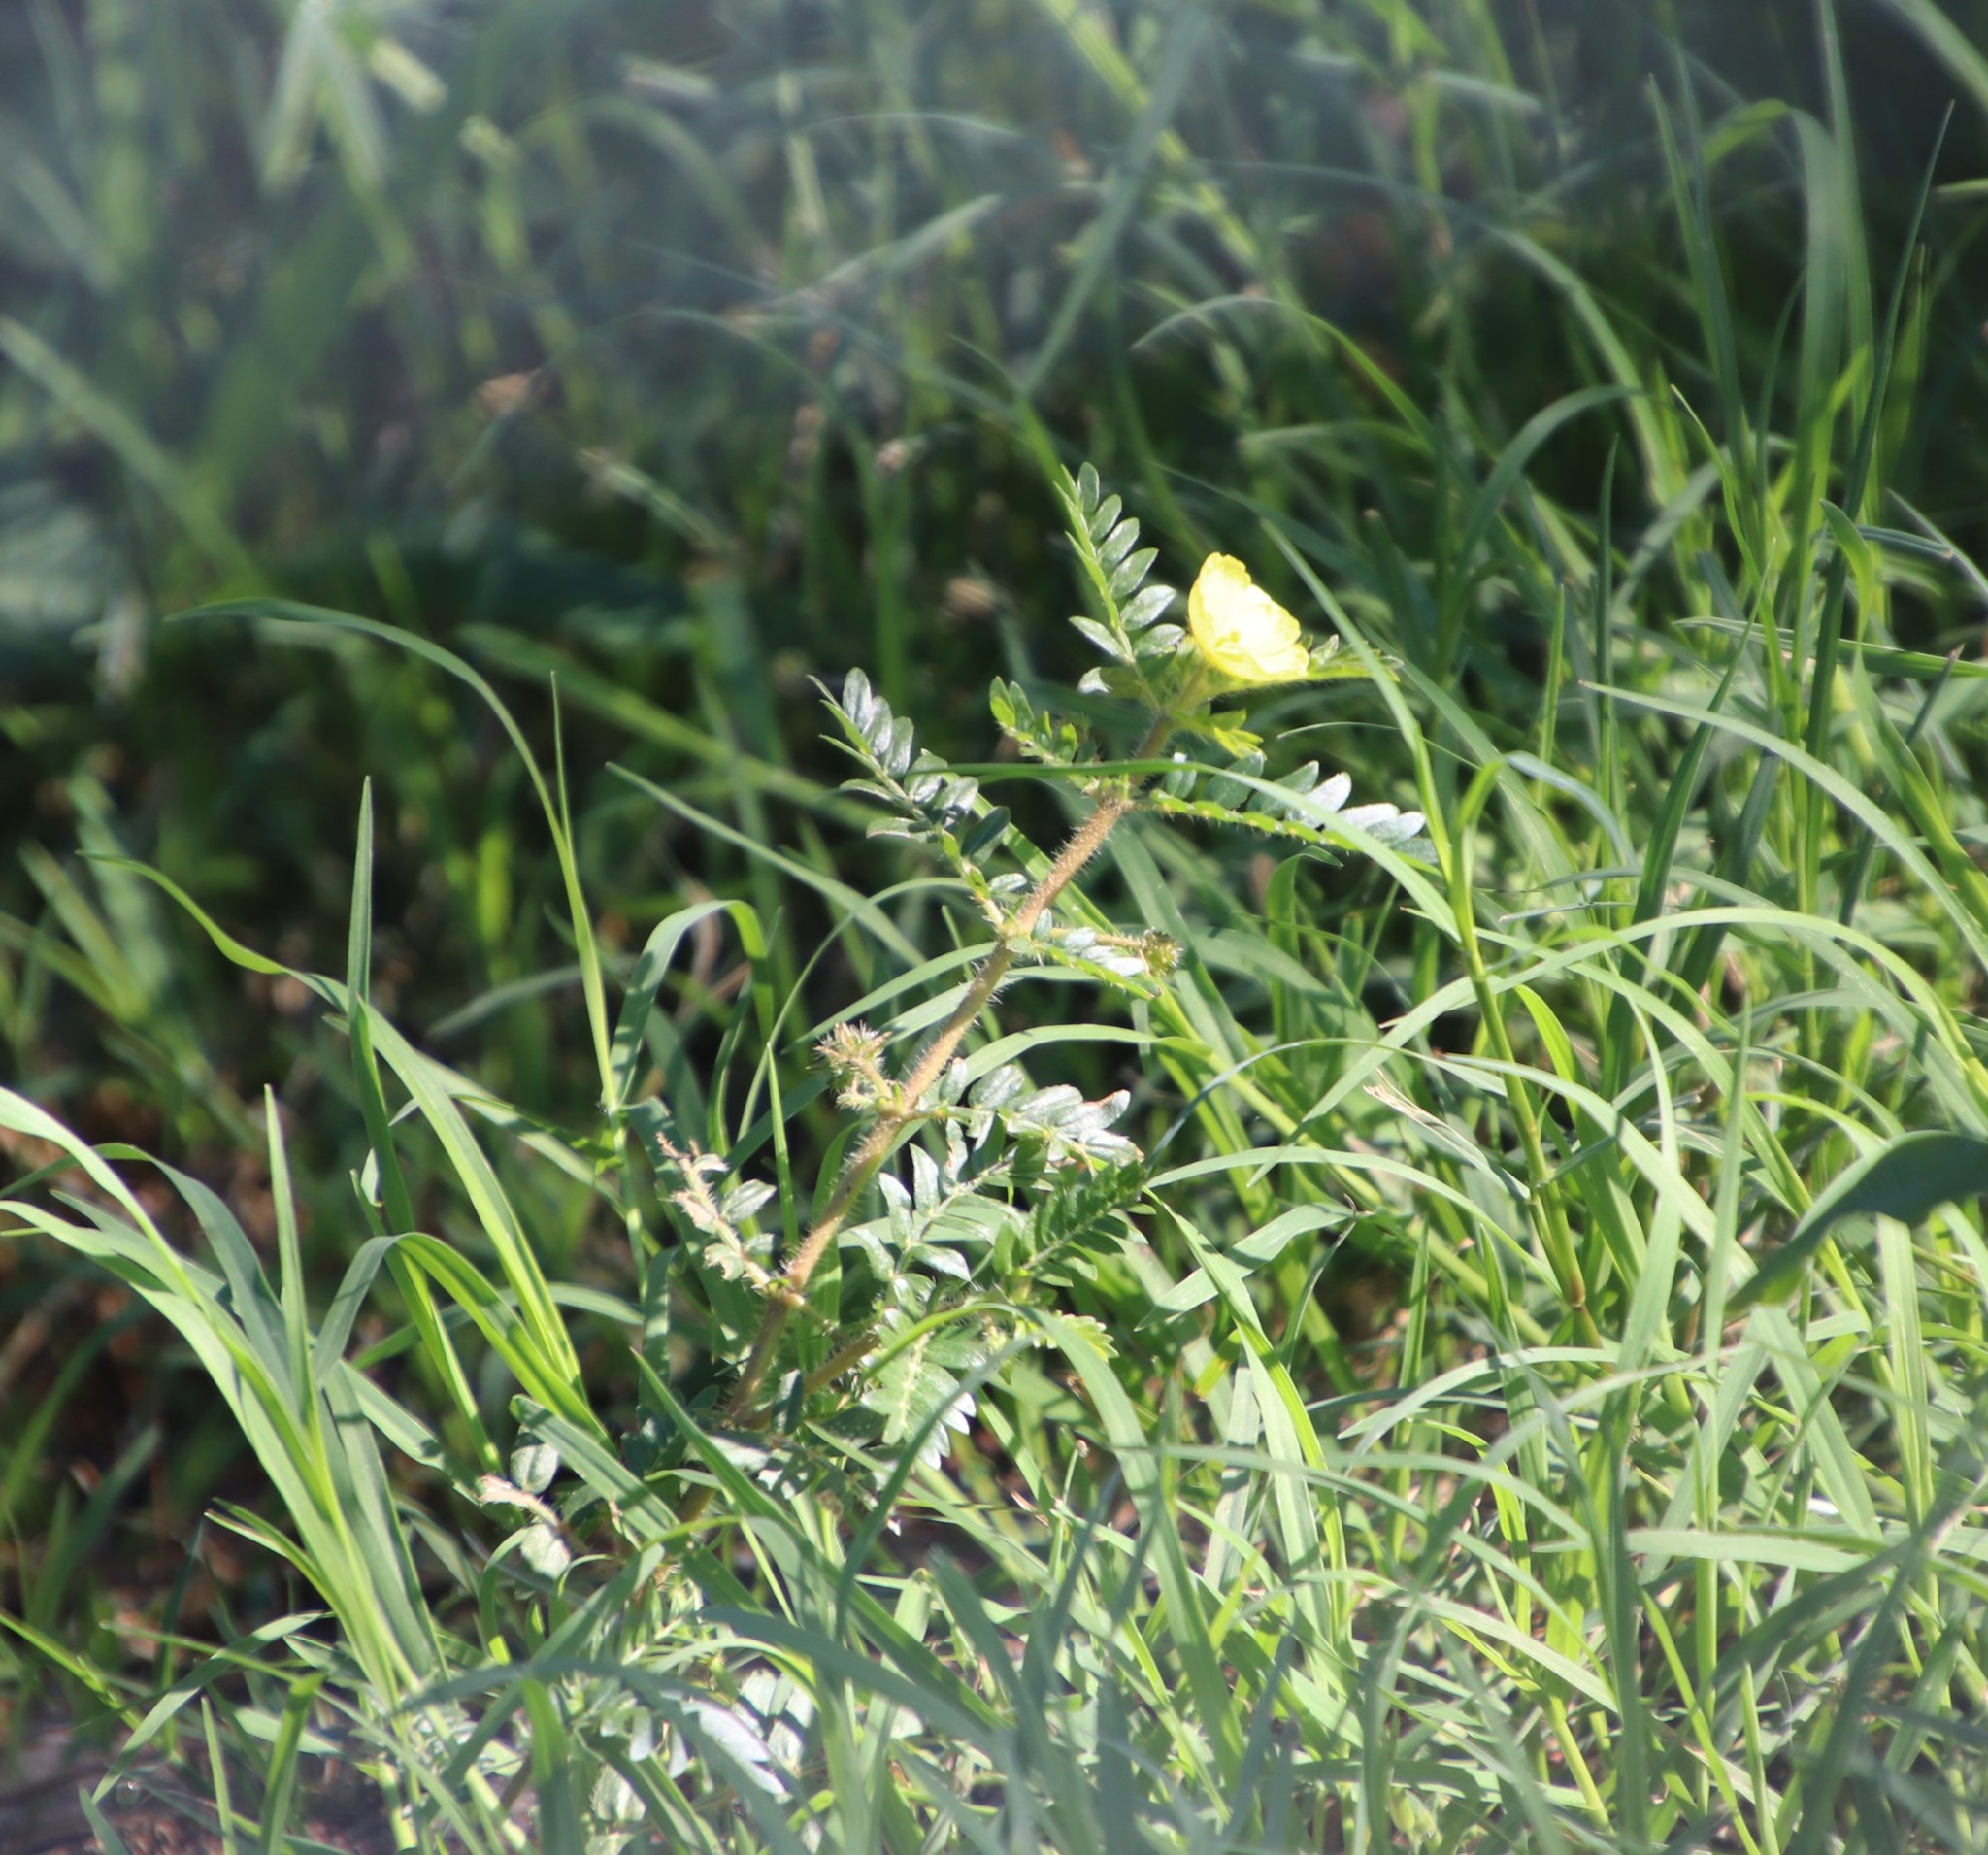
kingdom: Plantae
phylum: Tracheophyta
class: Magnoliopsida
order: Zygophyllales
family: Zygophyllaceae
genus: Tribulus
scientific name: Tribulus terrestris
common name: Puncturevine
